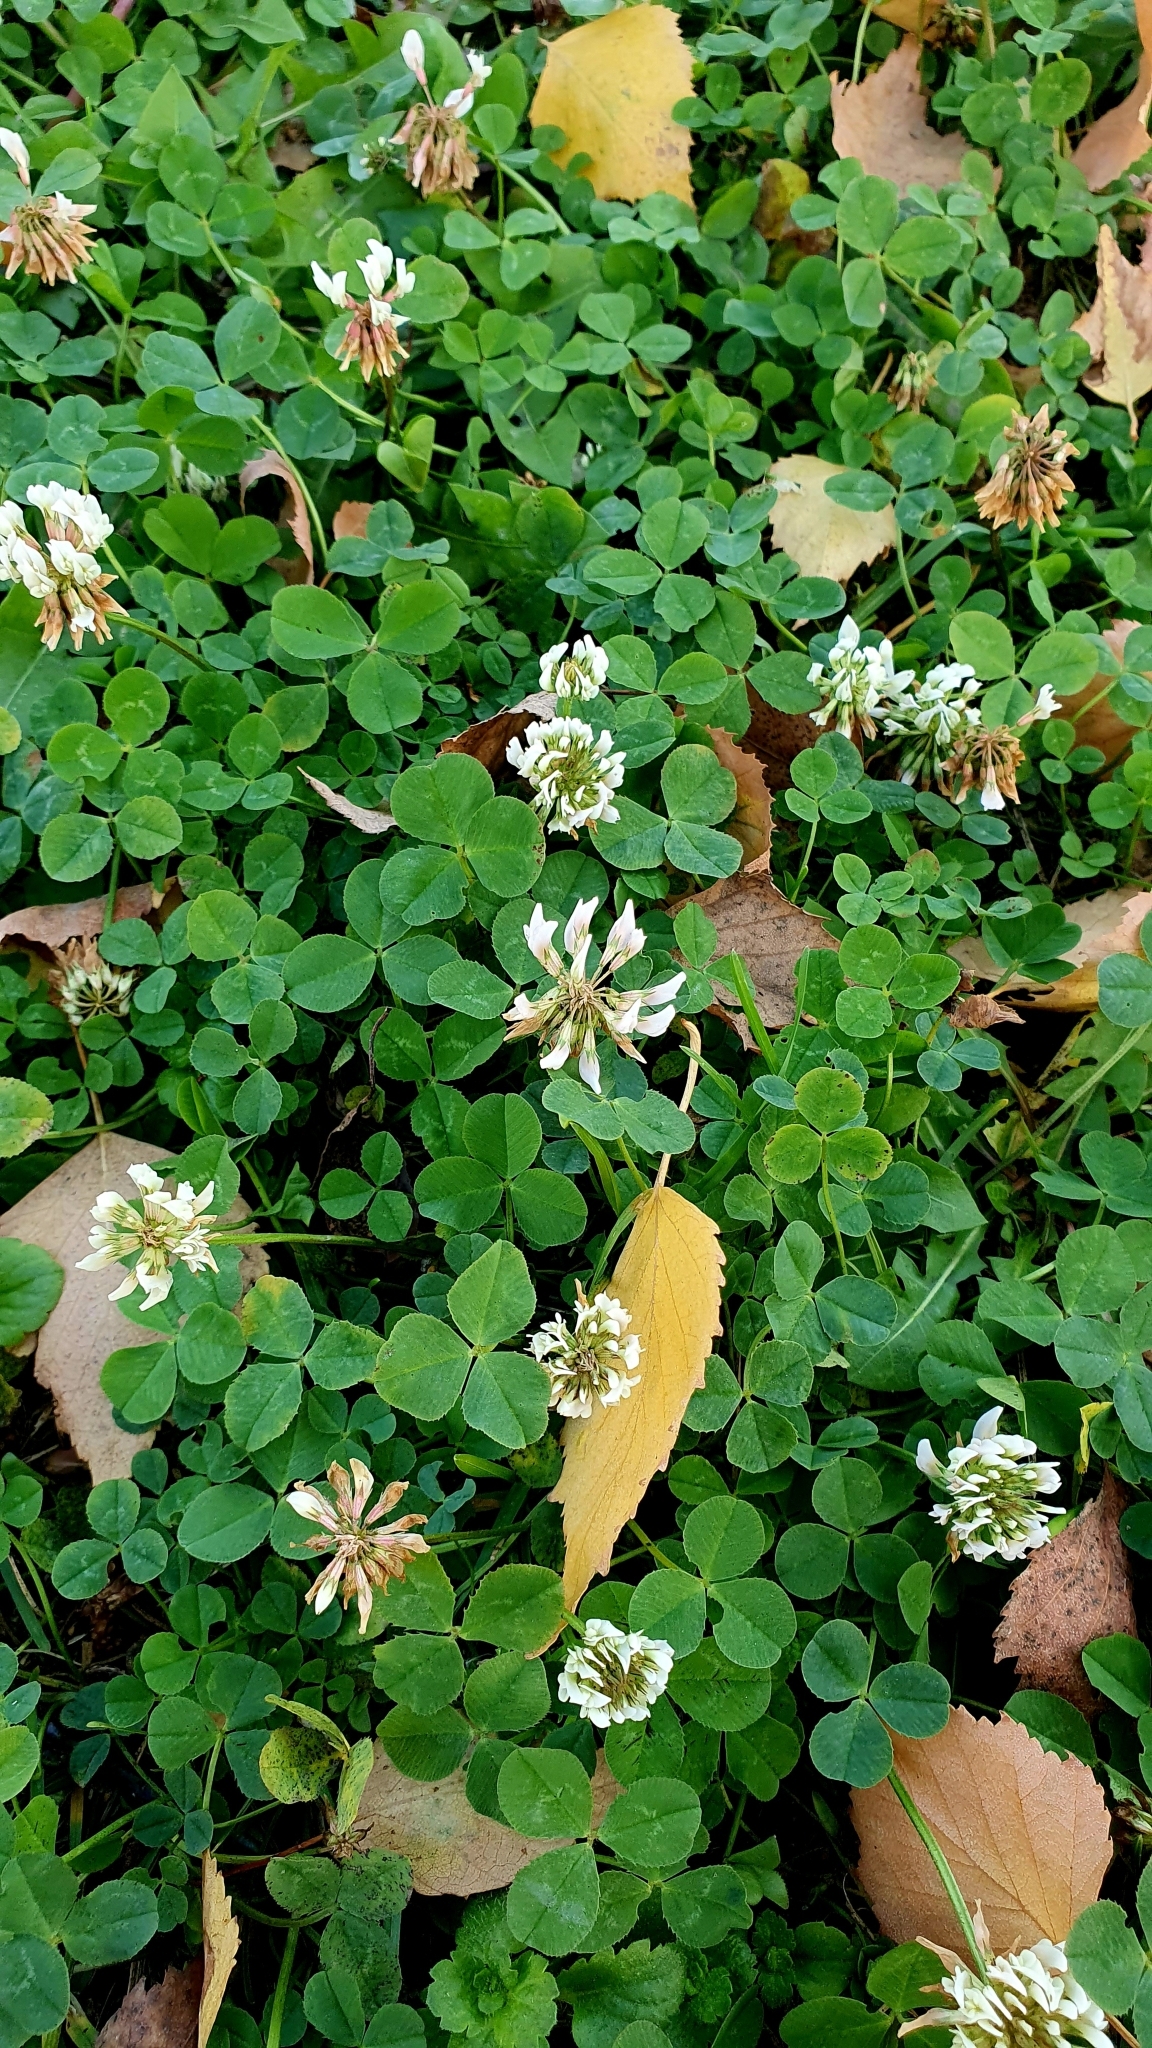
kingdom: Plantae
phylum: Tracheophyta
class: Magnoliopsida
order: Fabales
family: Fabaceae
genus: Trifolium
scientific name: Trifolium repens
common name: White clover
